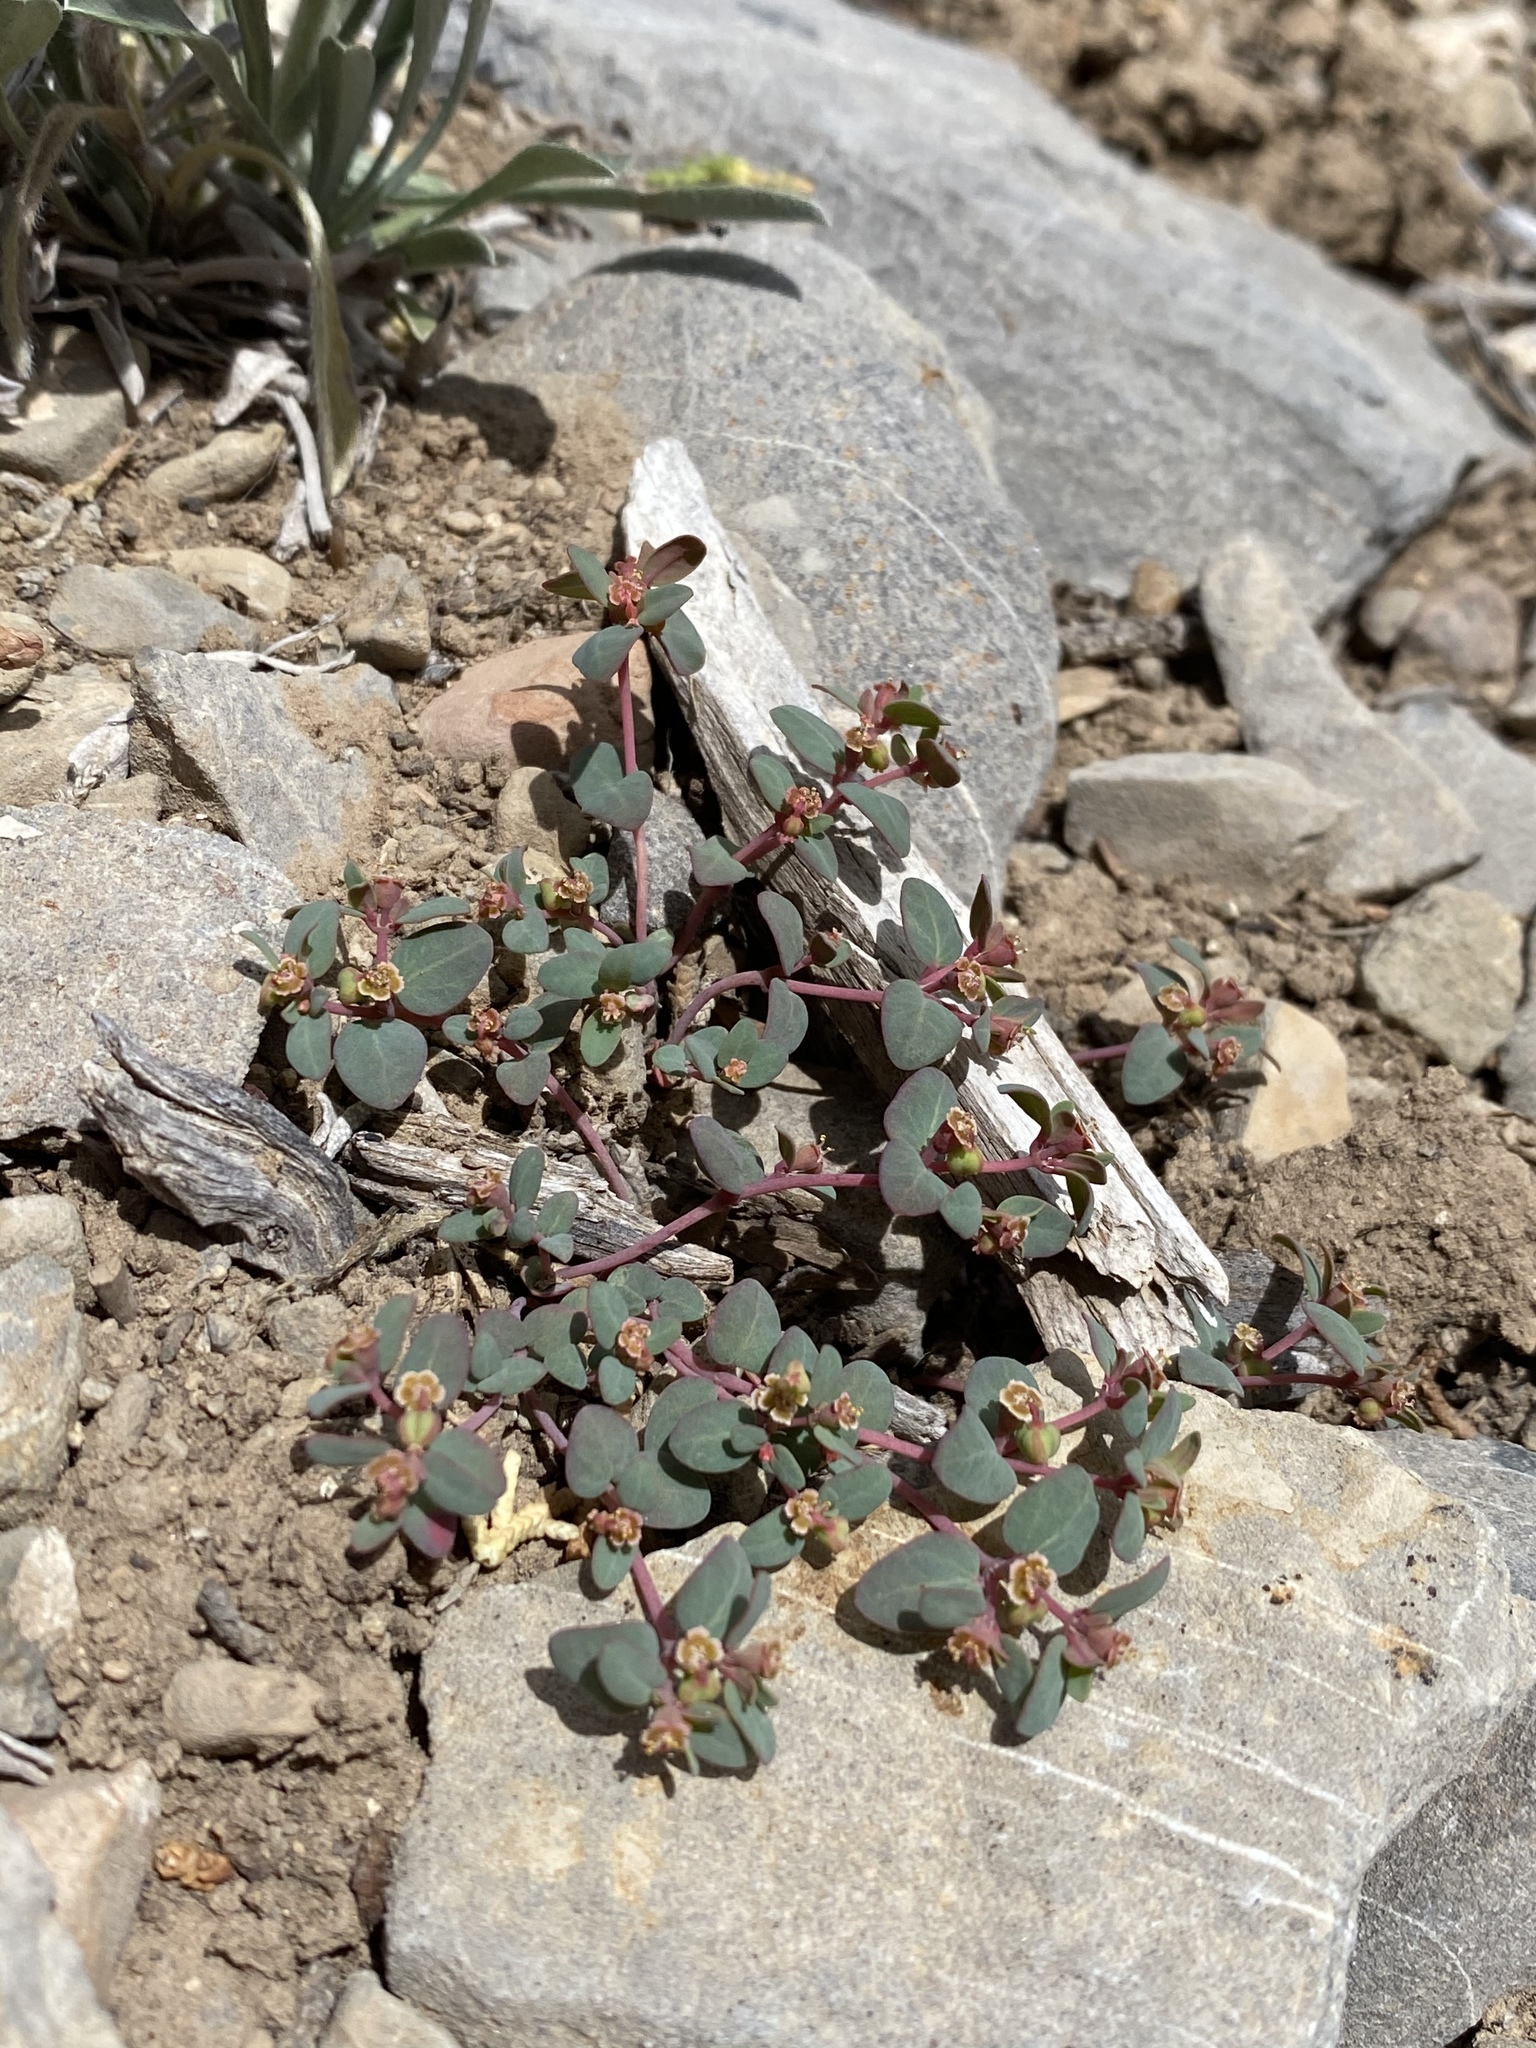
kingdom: Plantae
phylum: Tracheophyta
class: Magnoliopsida
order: Malpighiales
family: Euphorbiaceae
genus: Euphorbia
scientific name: Euphorbia fendleri
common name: Fendler's euphorbia
